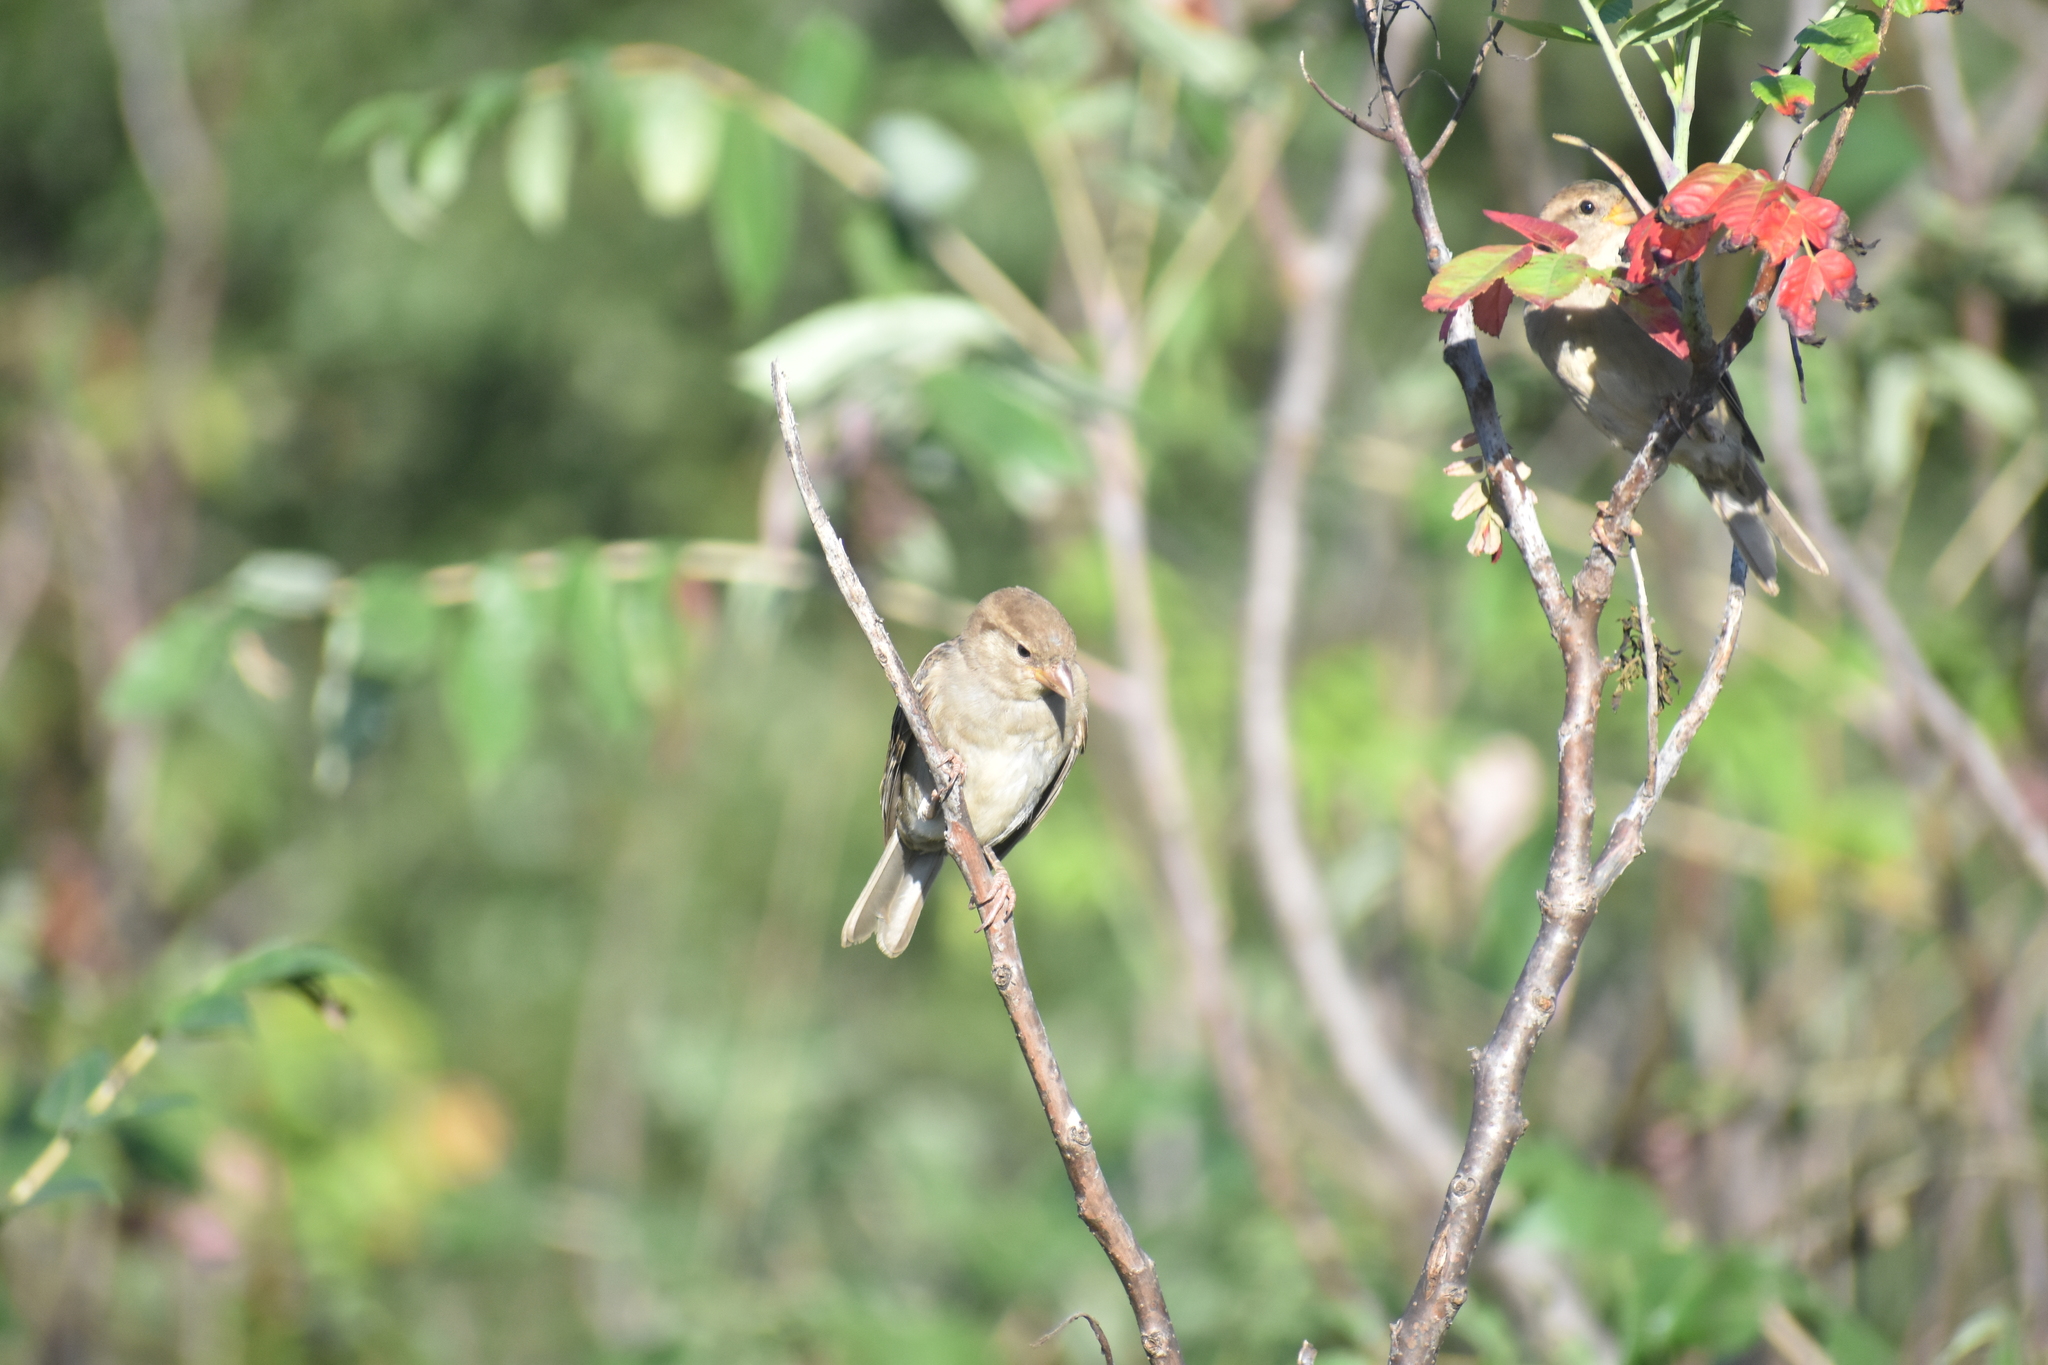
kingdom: Animalia
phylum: Chordata
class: Aves
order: Passeriformes
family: Passeridae
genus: Passer
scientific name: Passer domesticus
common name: House sparrow
